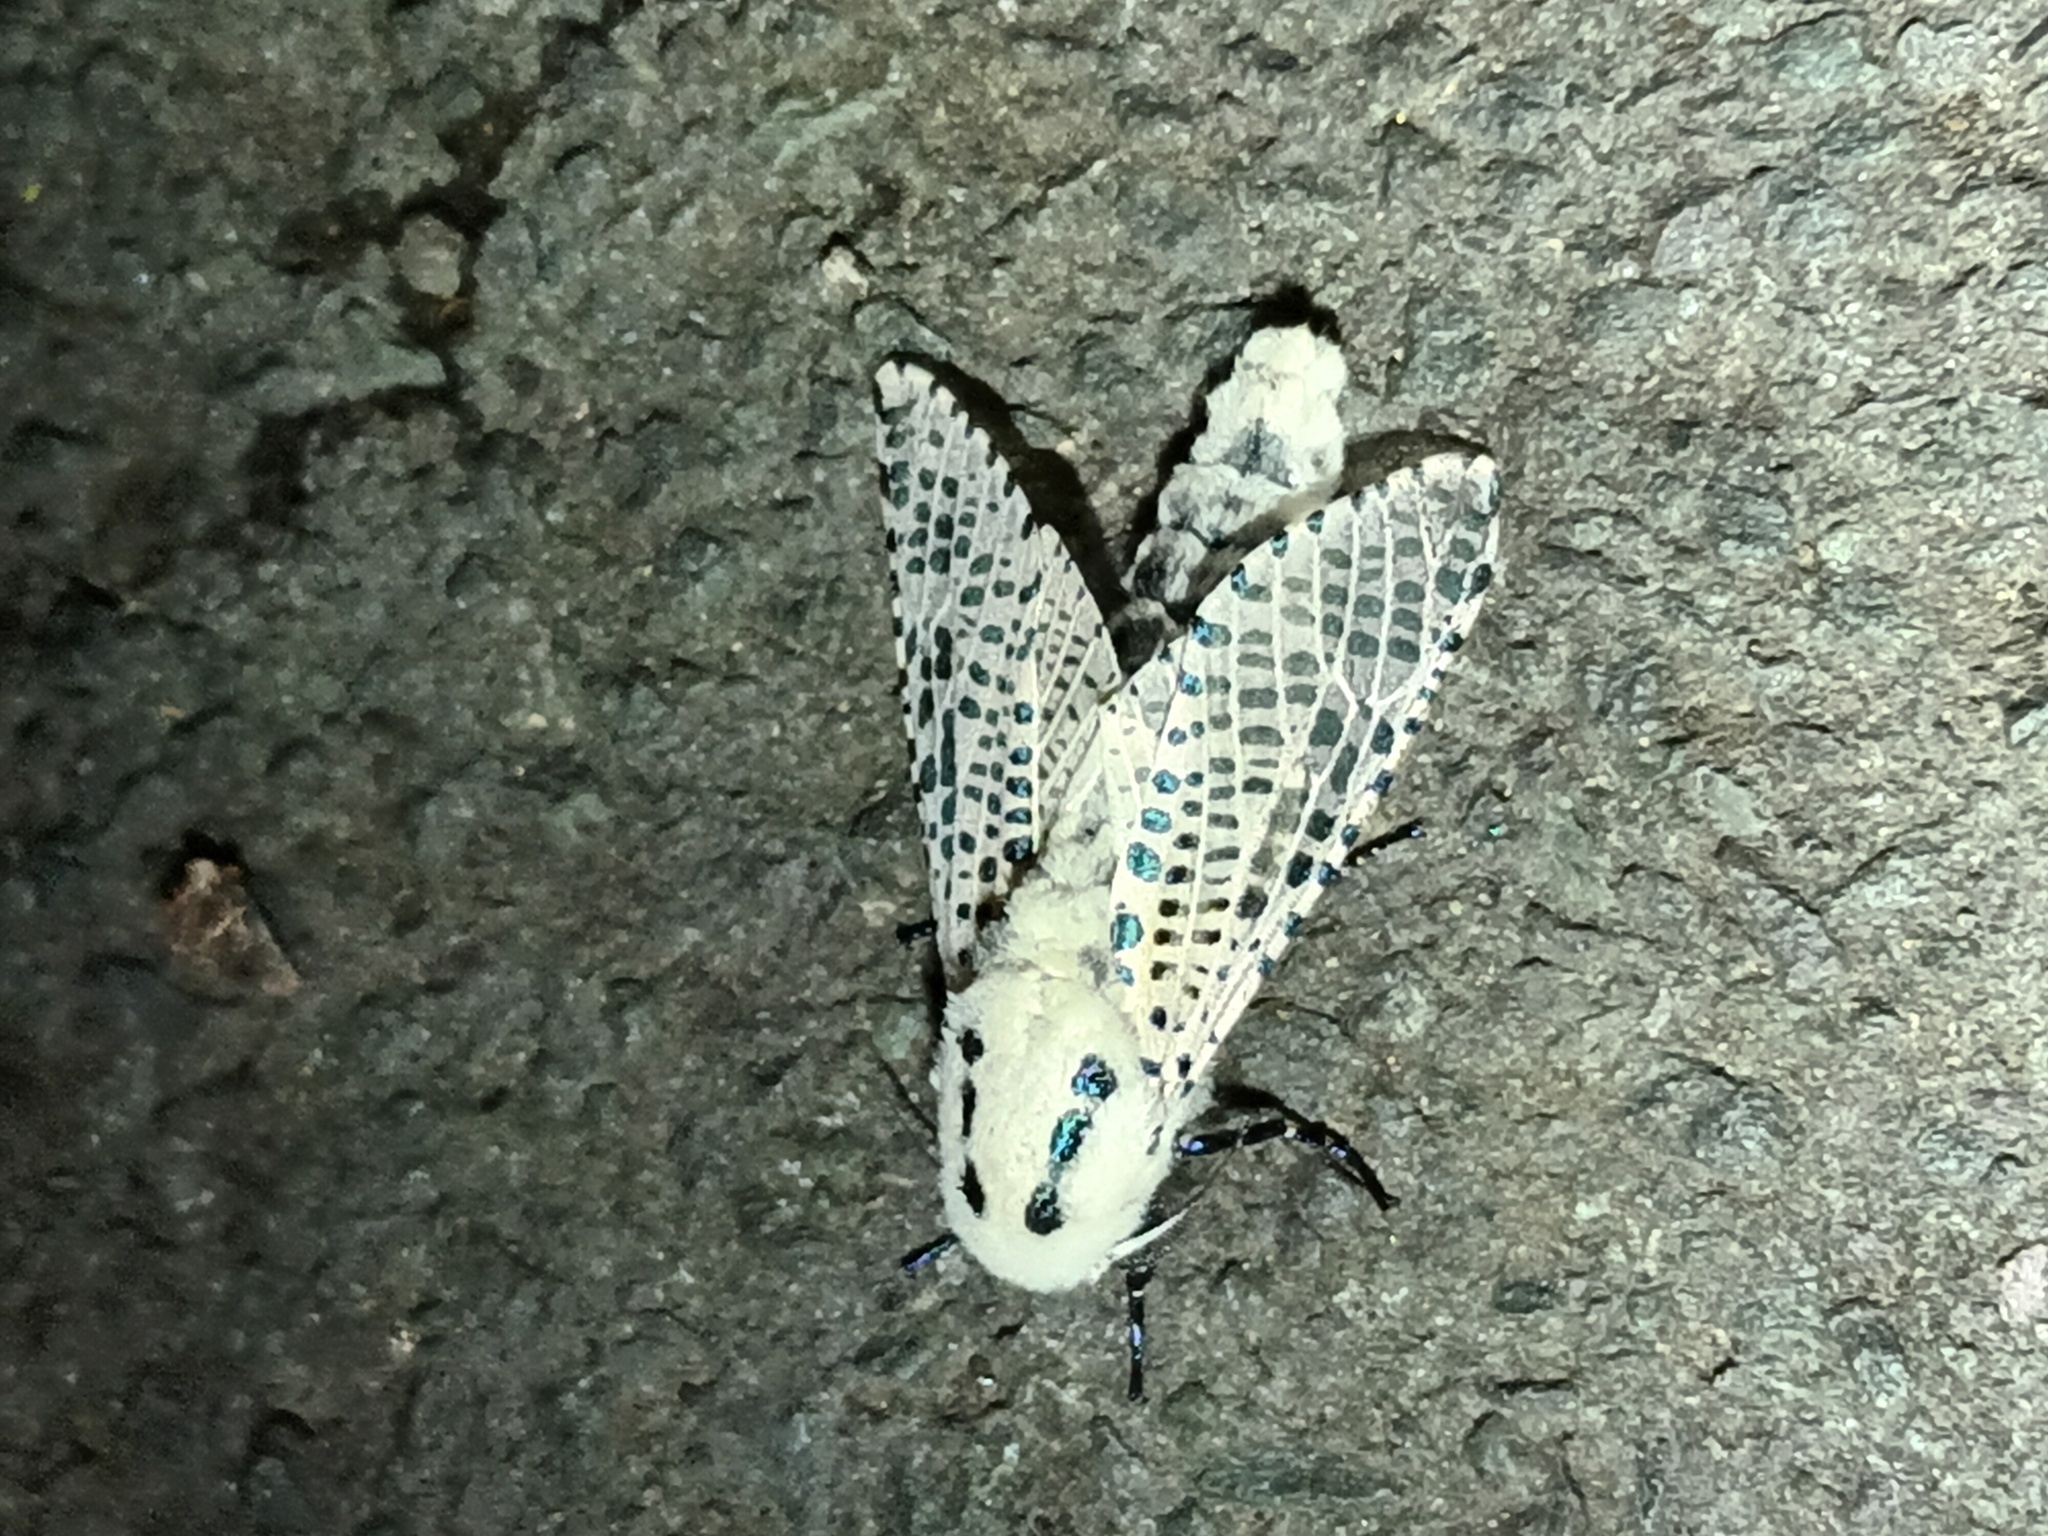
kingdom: Animalia
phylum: Arthropoda
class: Insecta
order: Lepidoptera
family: Cossidae
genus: Zeuzera
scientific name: Zeuzera pyrina
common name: Leopard moth
